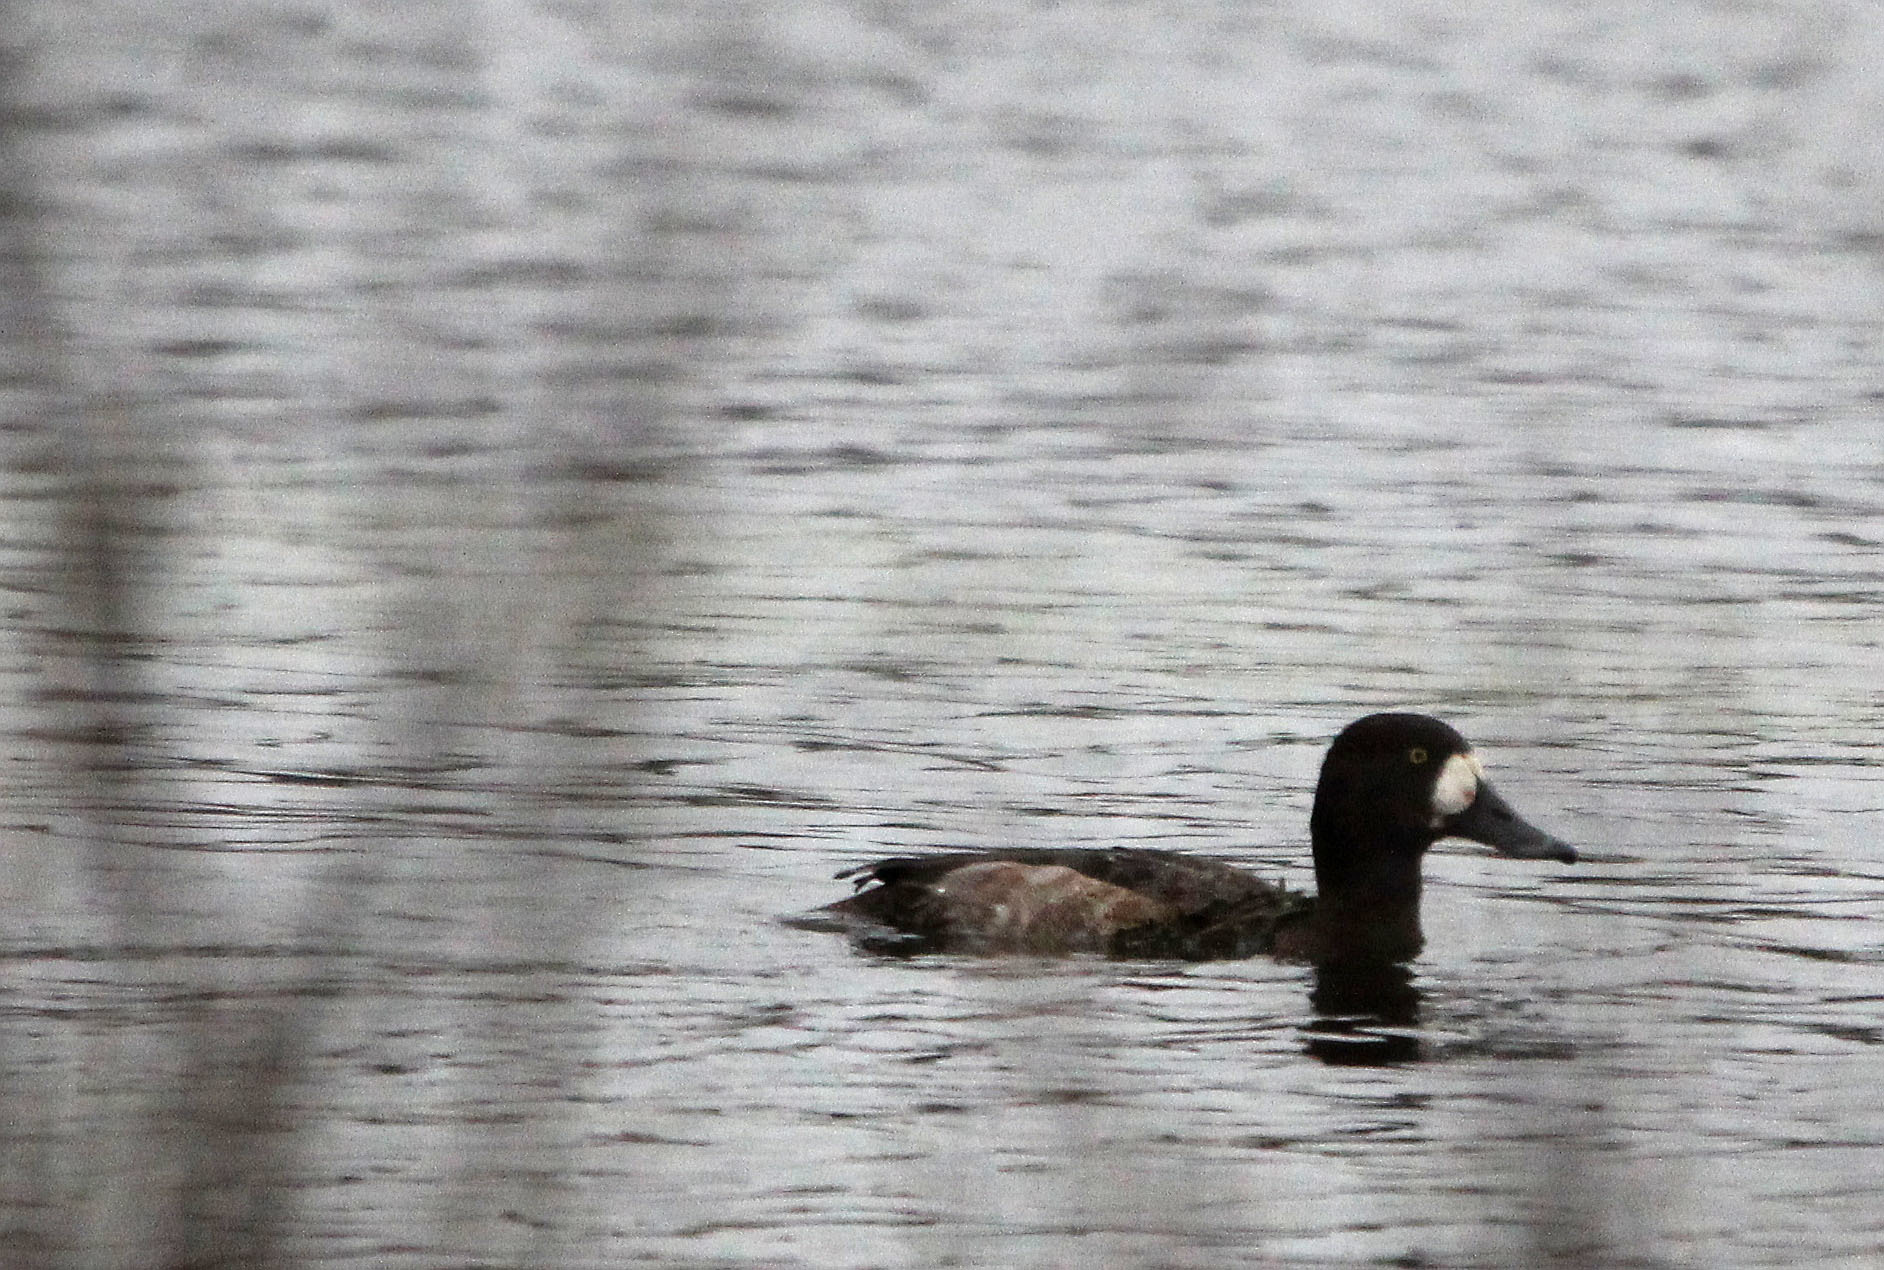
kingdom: Animalia
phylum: Chordata
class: Aves
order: Anseriformes
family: Anatidae
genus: Aythya
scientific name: Aythya marila
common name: Greater scaup
